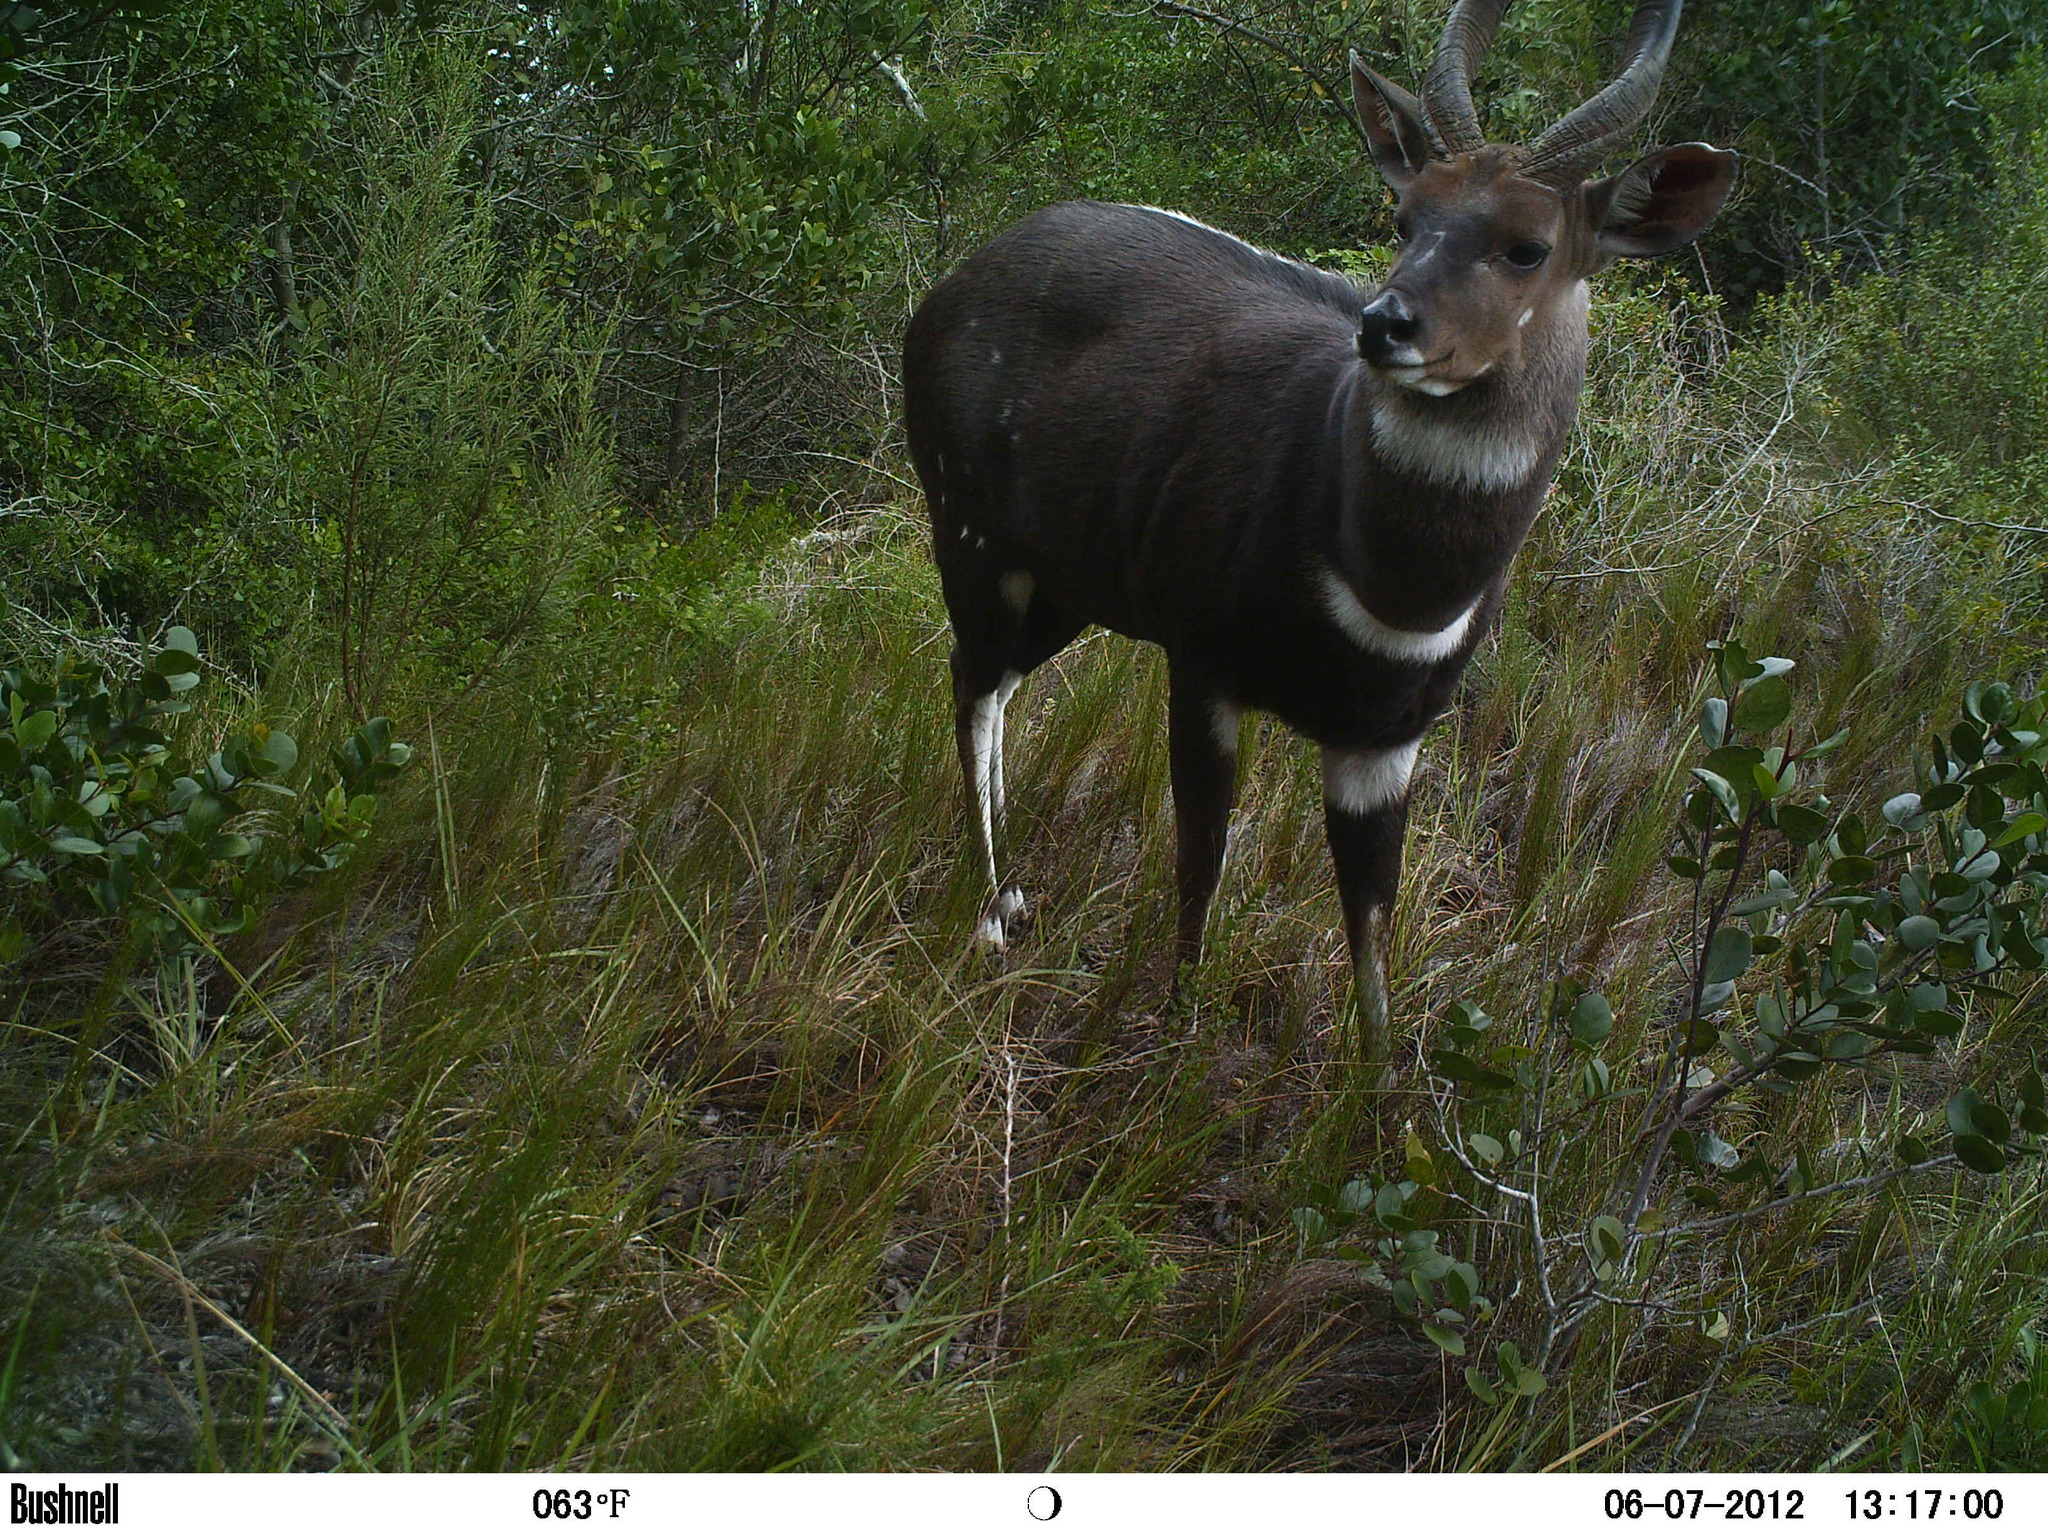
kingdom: Animalia
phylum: Chordata
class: Mammalia
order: Artiodactyla
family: Bovidae
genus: Tragelaphus
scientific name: Tragelaphus scriptus
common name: Bushbuck
